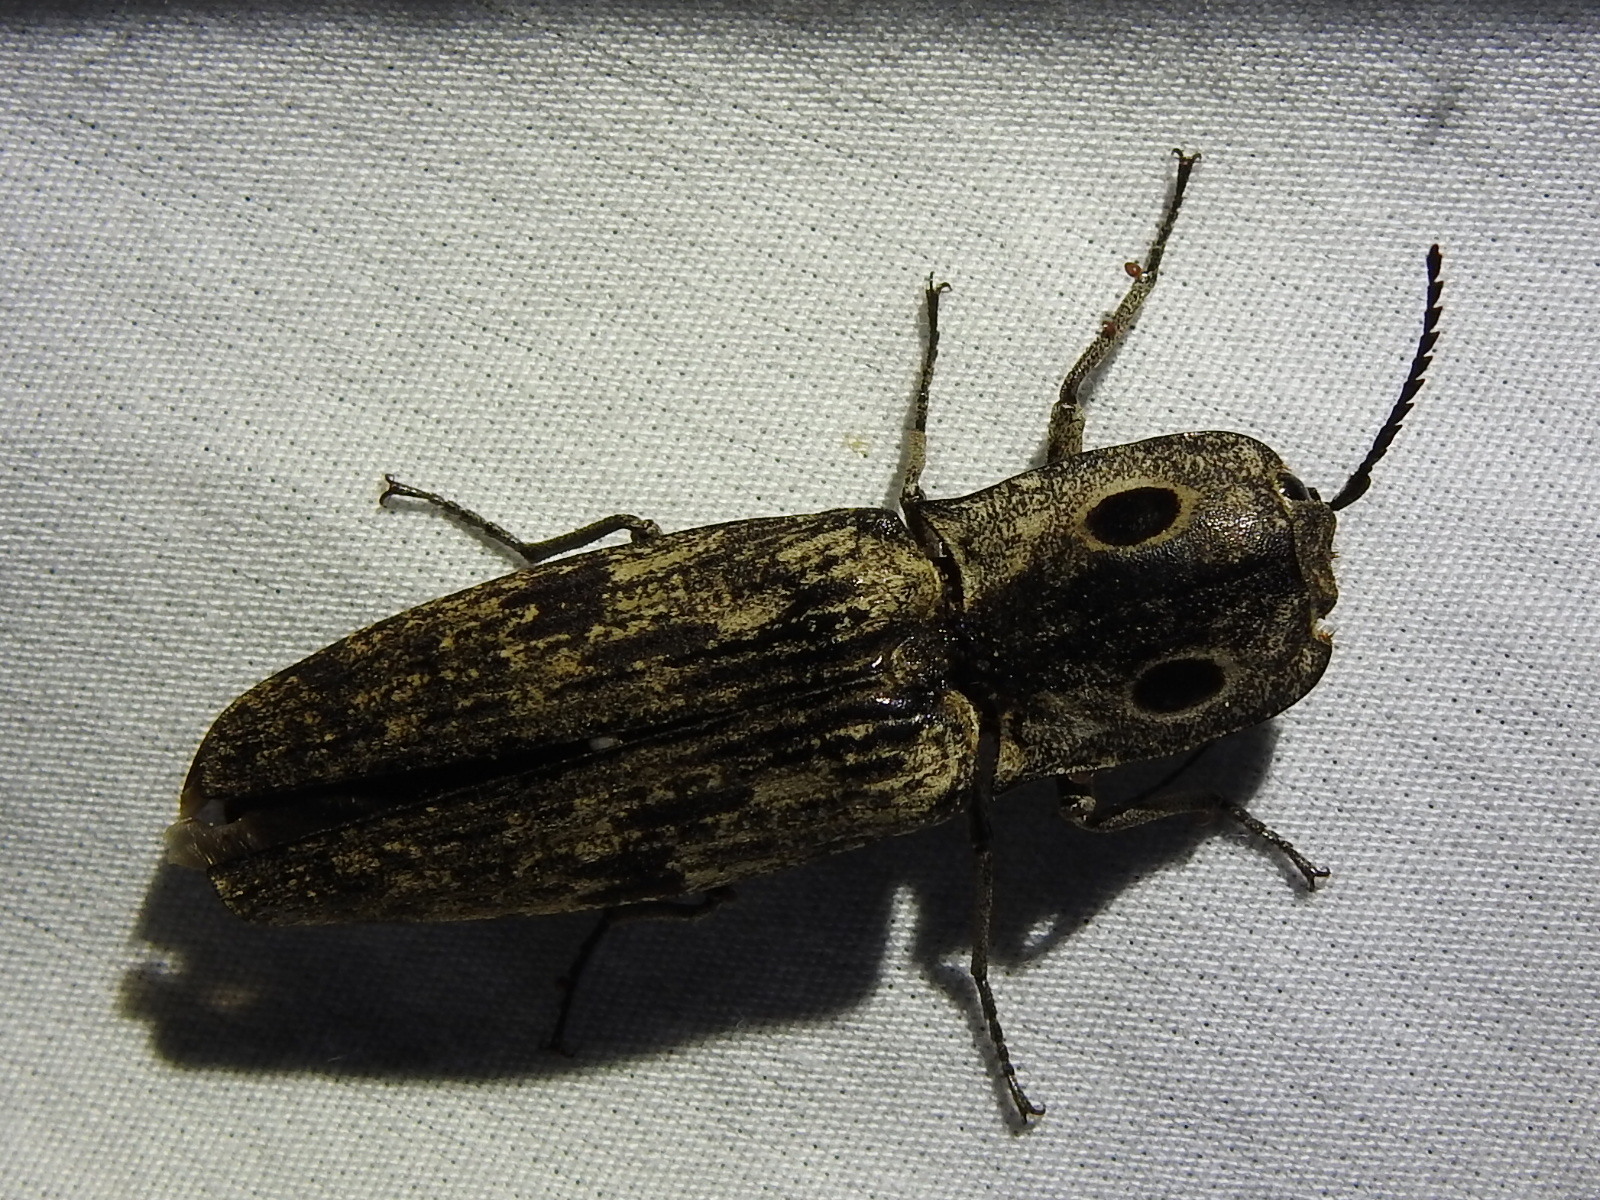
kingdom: Animalia
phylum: Arthropoda
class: Insecta
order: Coleoptera
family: Elateridae
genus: Alaus
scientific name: Alaus myops
